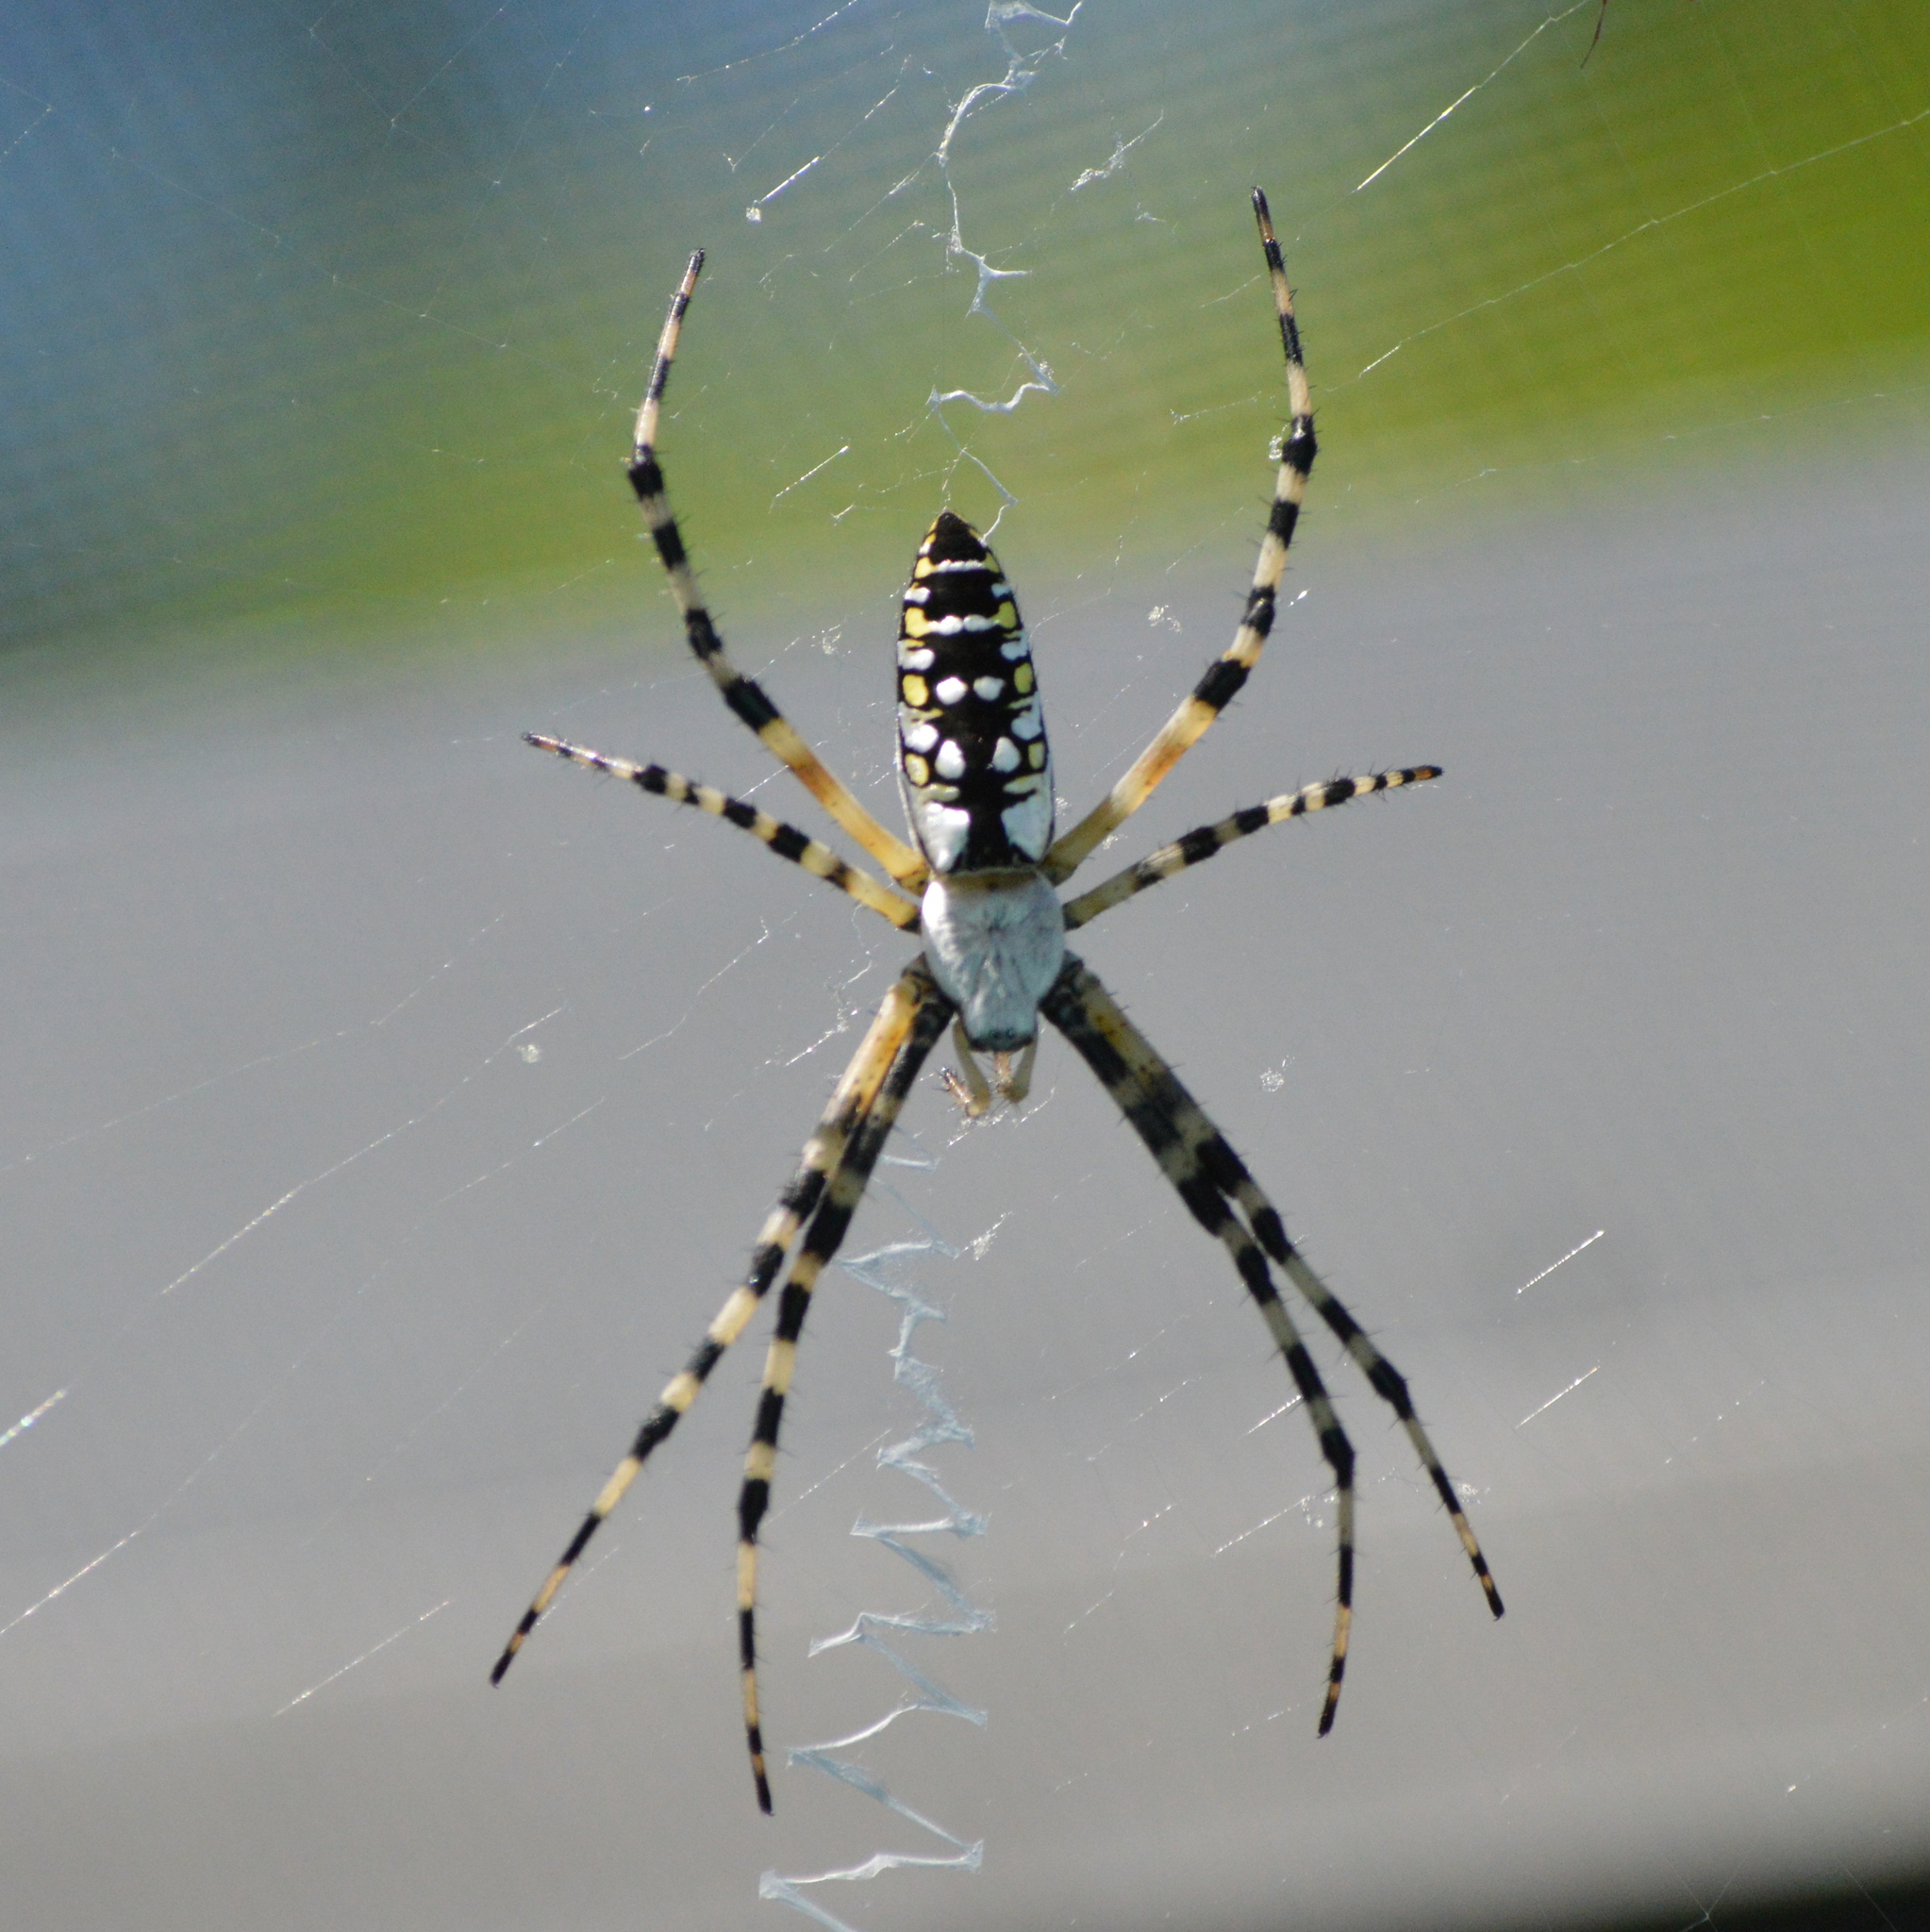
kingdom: Animalia
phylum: Arthropoda
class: Arachnida
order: Araneae
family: Araneidae
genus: Argiope
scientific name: Argiope aurantia
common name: Orb weavers
